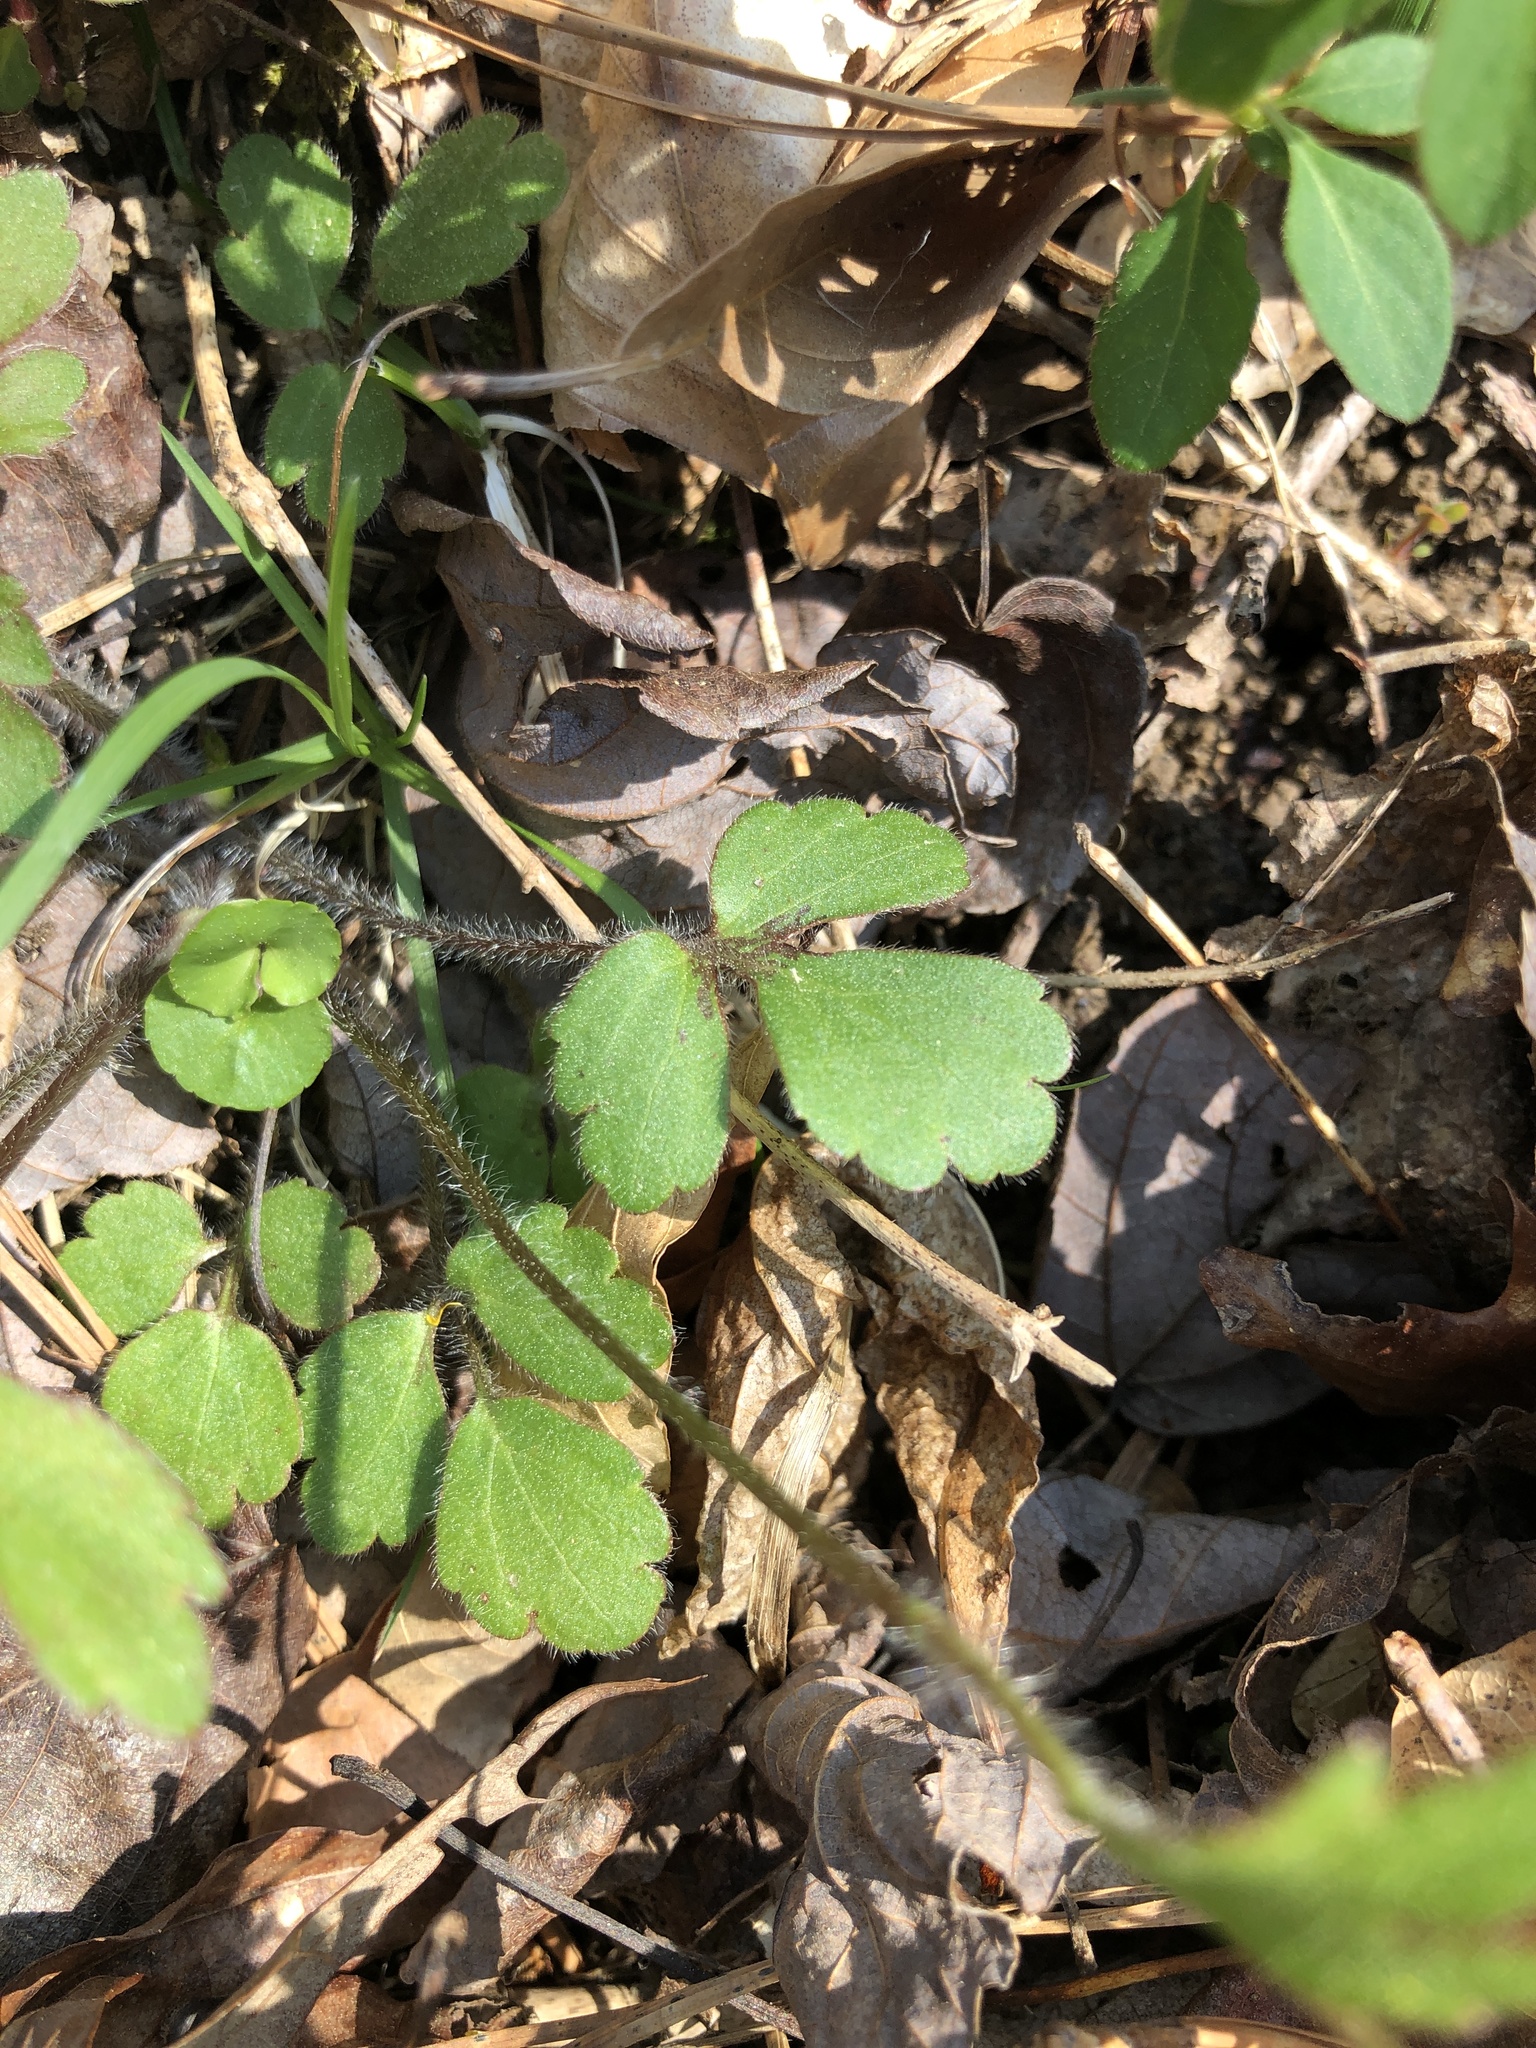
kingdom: Plantae
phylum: Tracheophyta
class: Magnoliopsida
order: Ranunculales
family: Ranunculaceae
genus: Ranunculus
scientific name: Ranunculus hispidus
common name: Bristly buttercup
